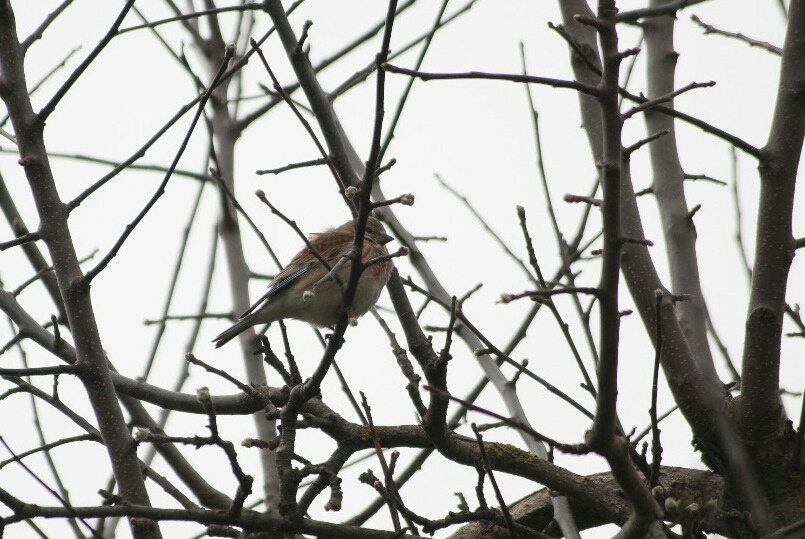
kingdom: Animalia
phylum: Chordata
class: Aves
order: Passeriformes
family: Fringillidae
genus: Linaria
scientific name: Linaria cannabina
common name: Common linnet
